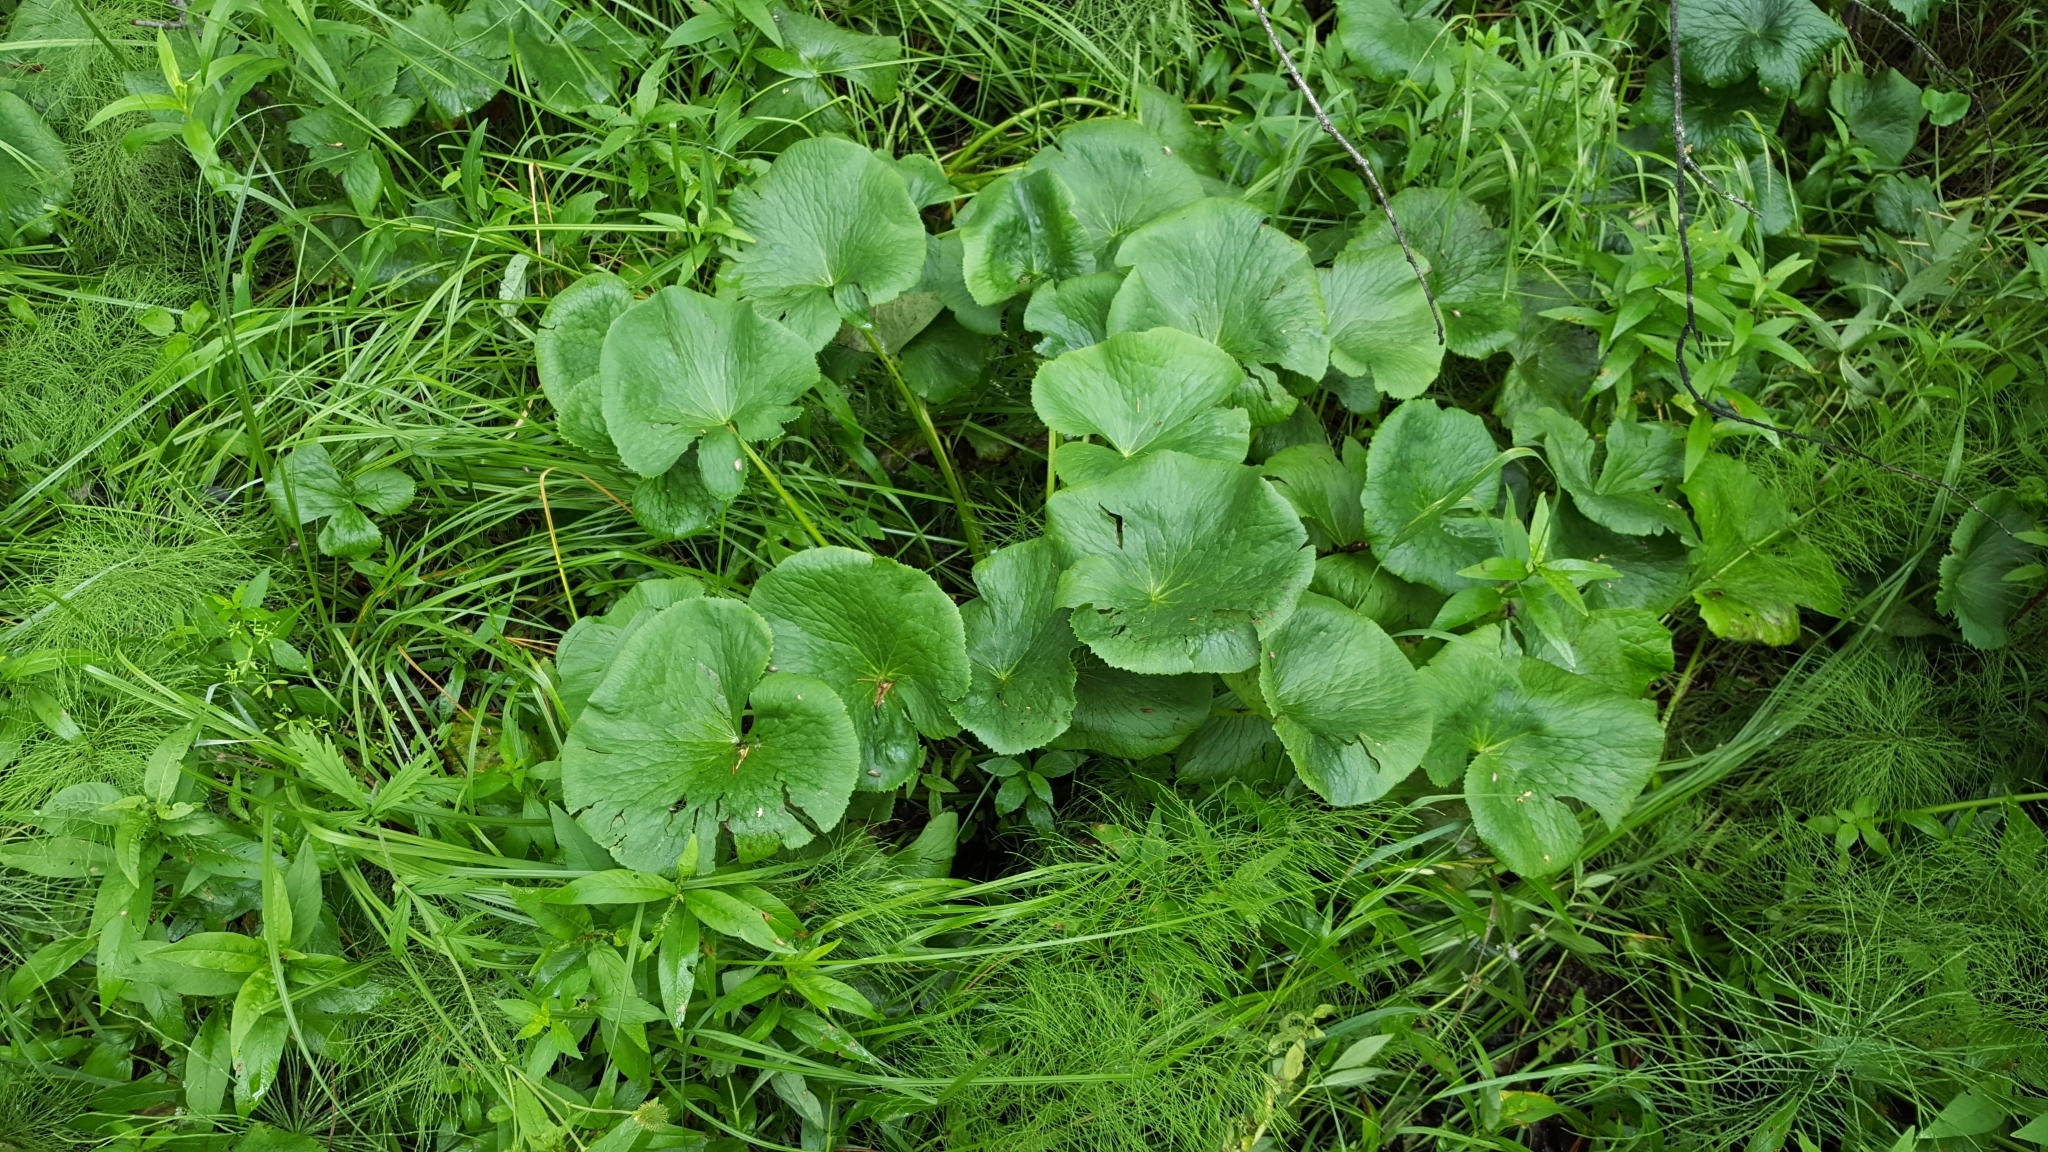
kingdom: Plantae
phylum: Tracheophyta
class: Magnoliopsida
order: Ranunculales
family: Ranunculaceae
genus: Caltha
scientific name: Caltha palustris
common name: Marsh marigold
